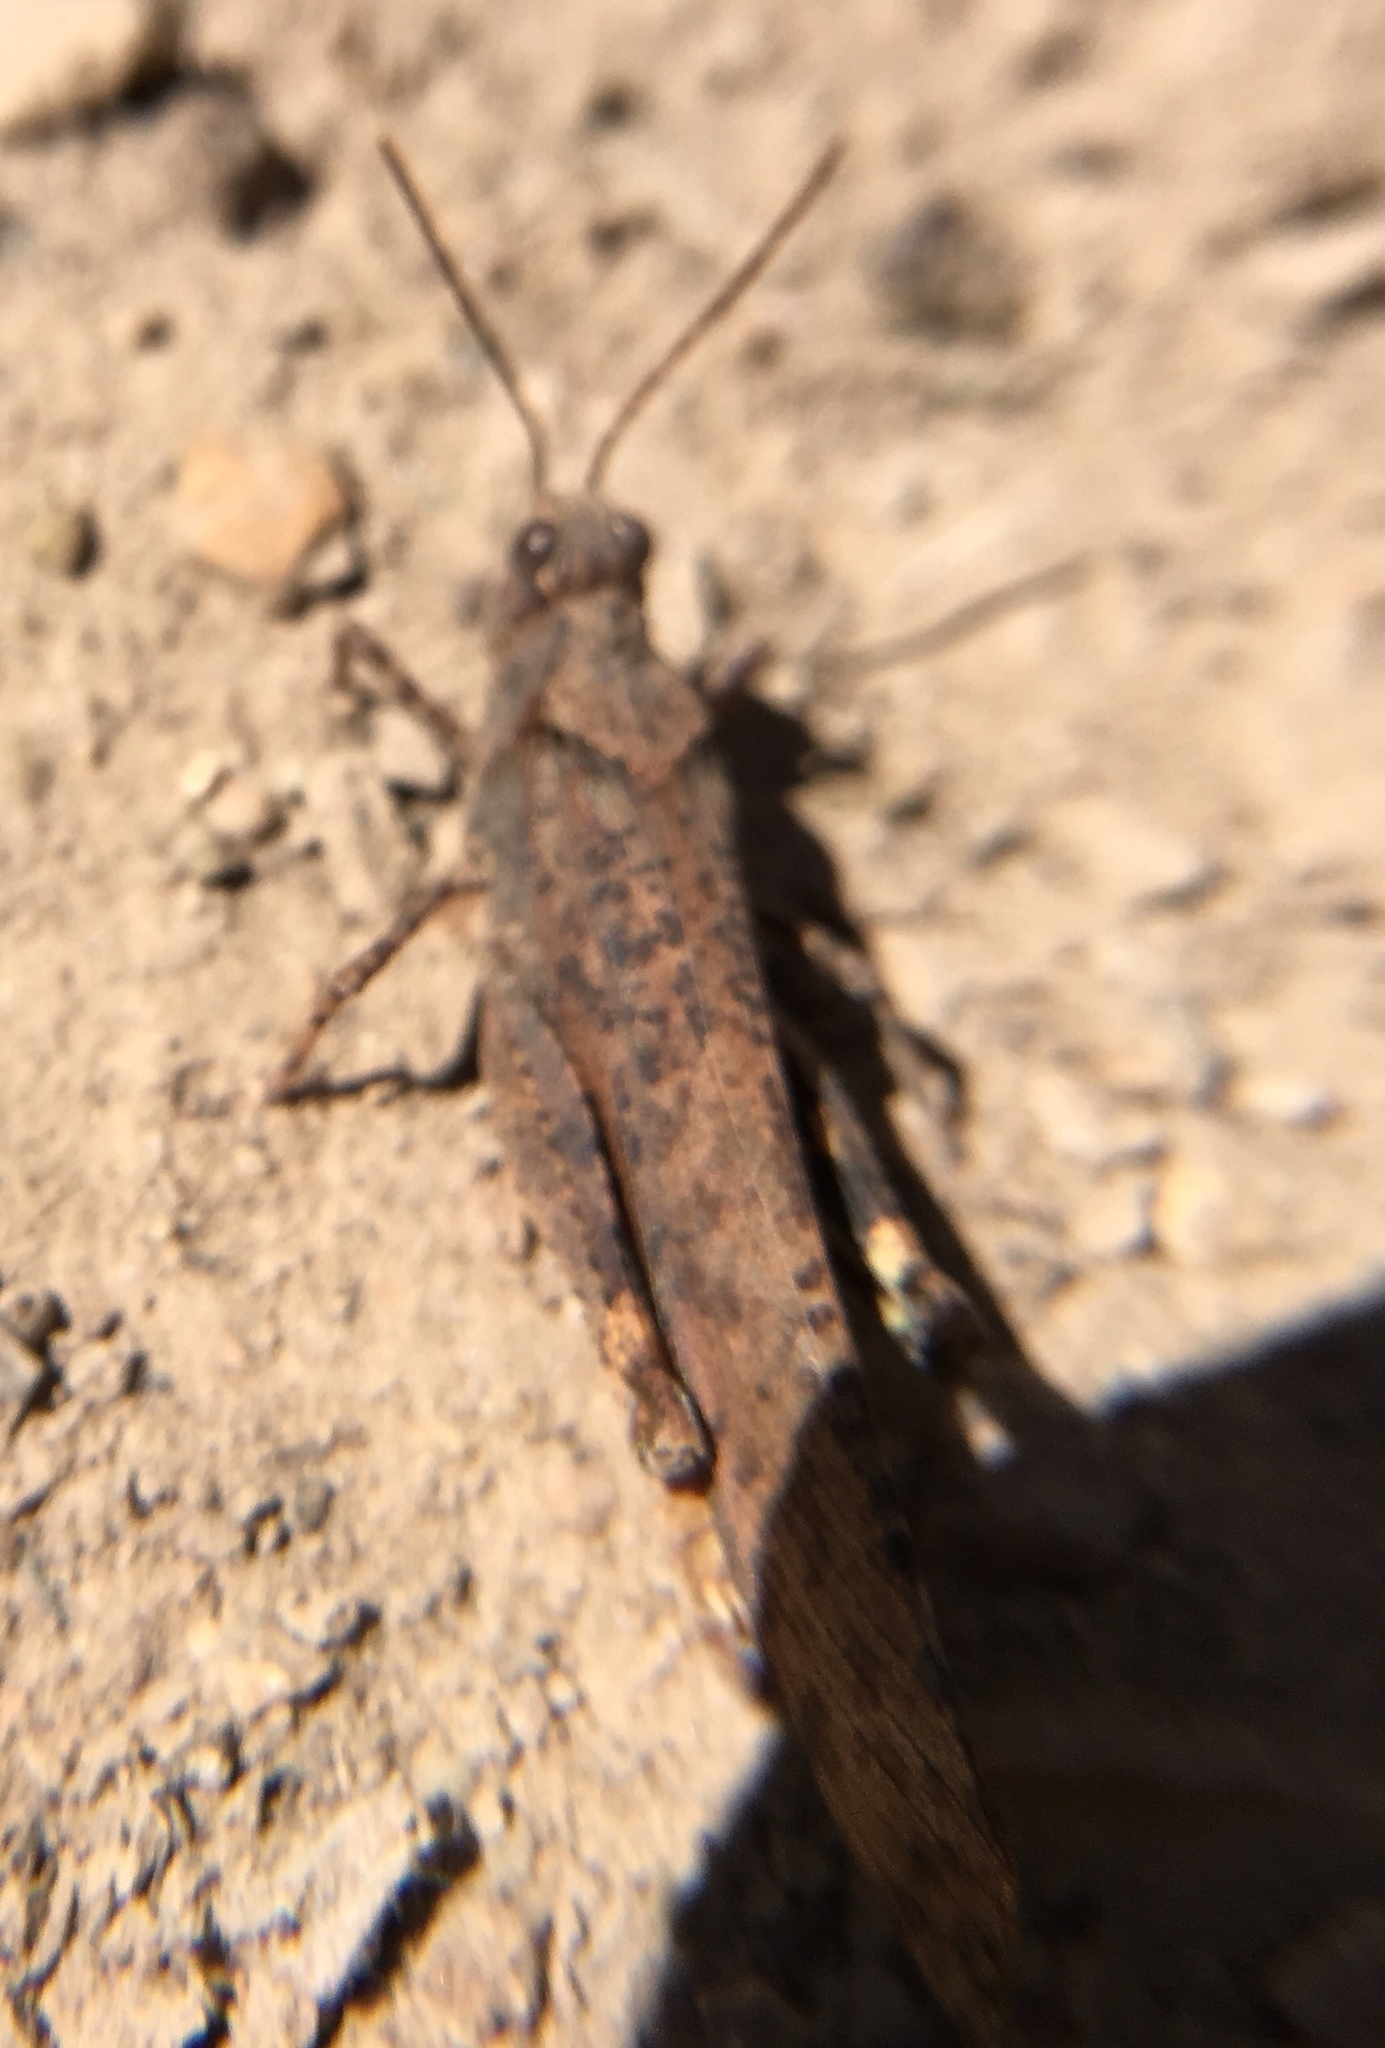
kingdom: Animalia
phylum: Arthropoda
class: Insecta
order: Orthoptera
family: Acrididae
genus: Dissosteira
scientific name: Dissosteira carolina
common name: Carolina grasshopper
